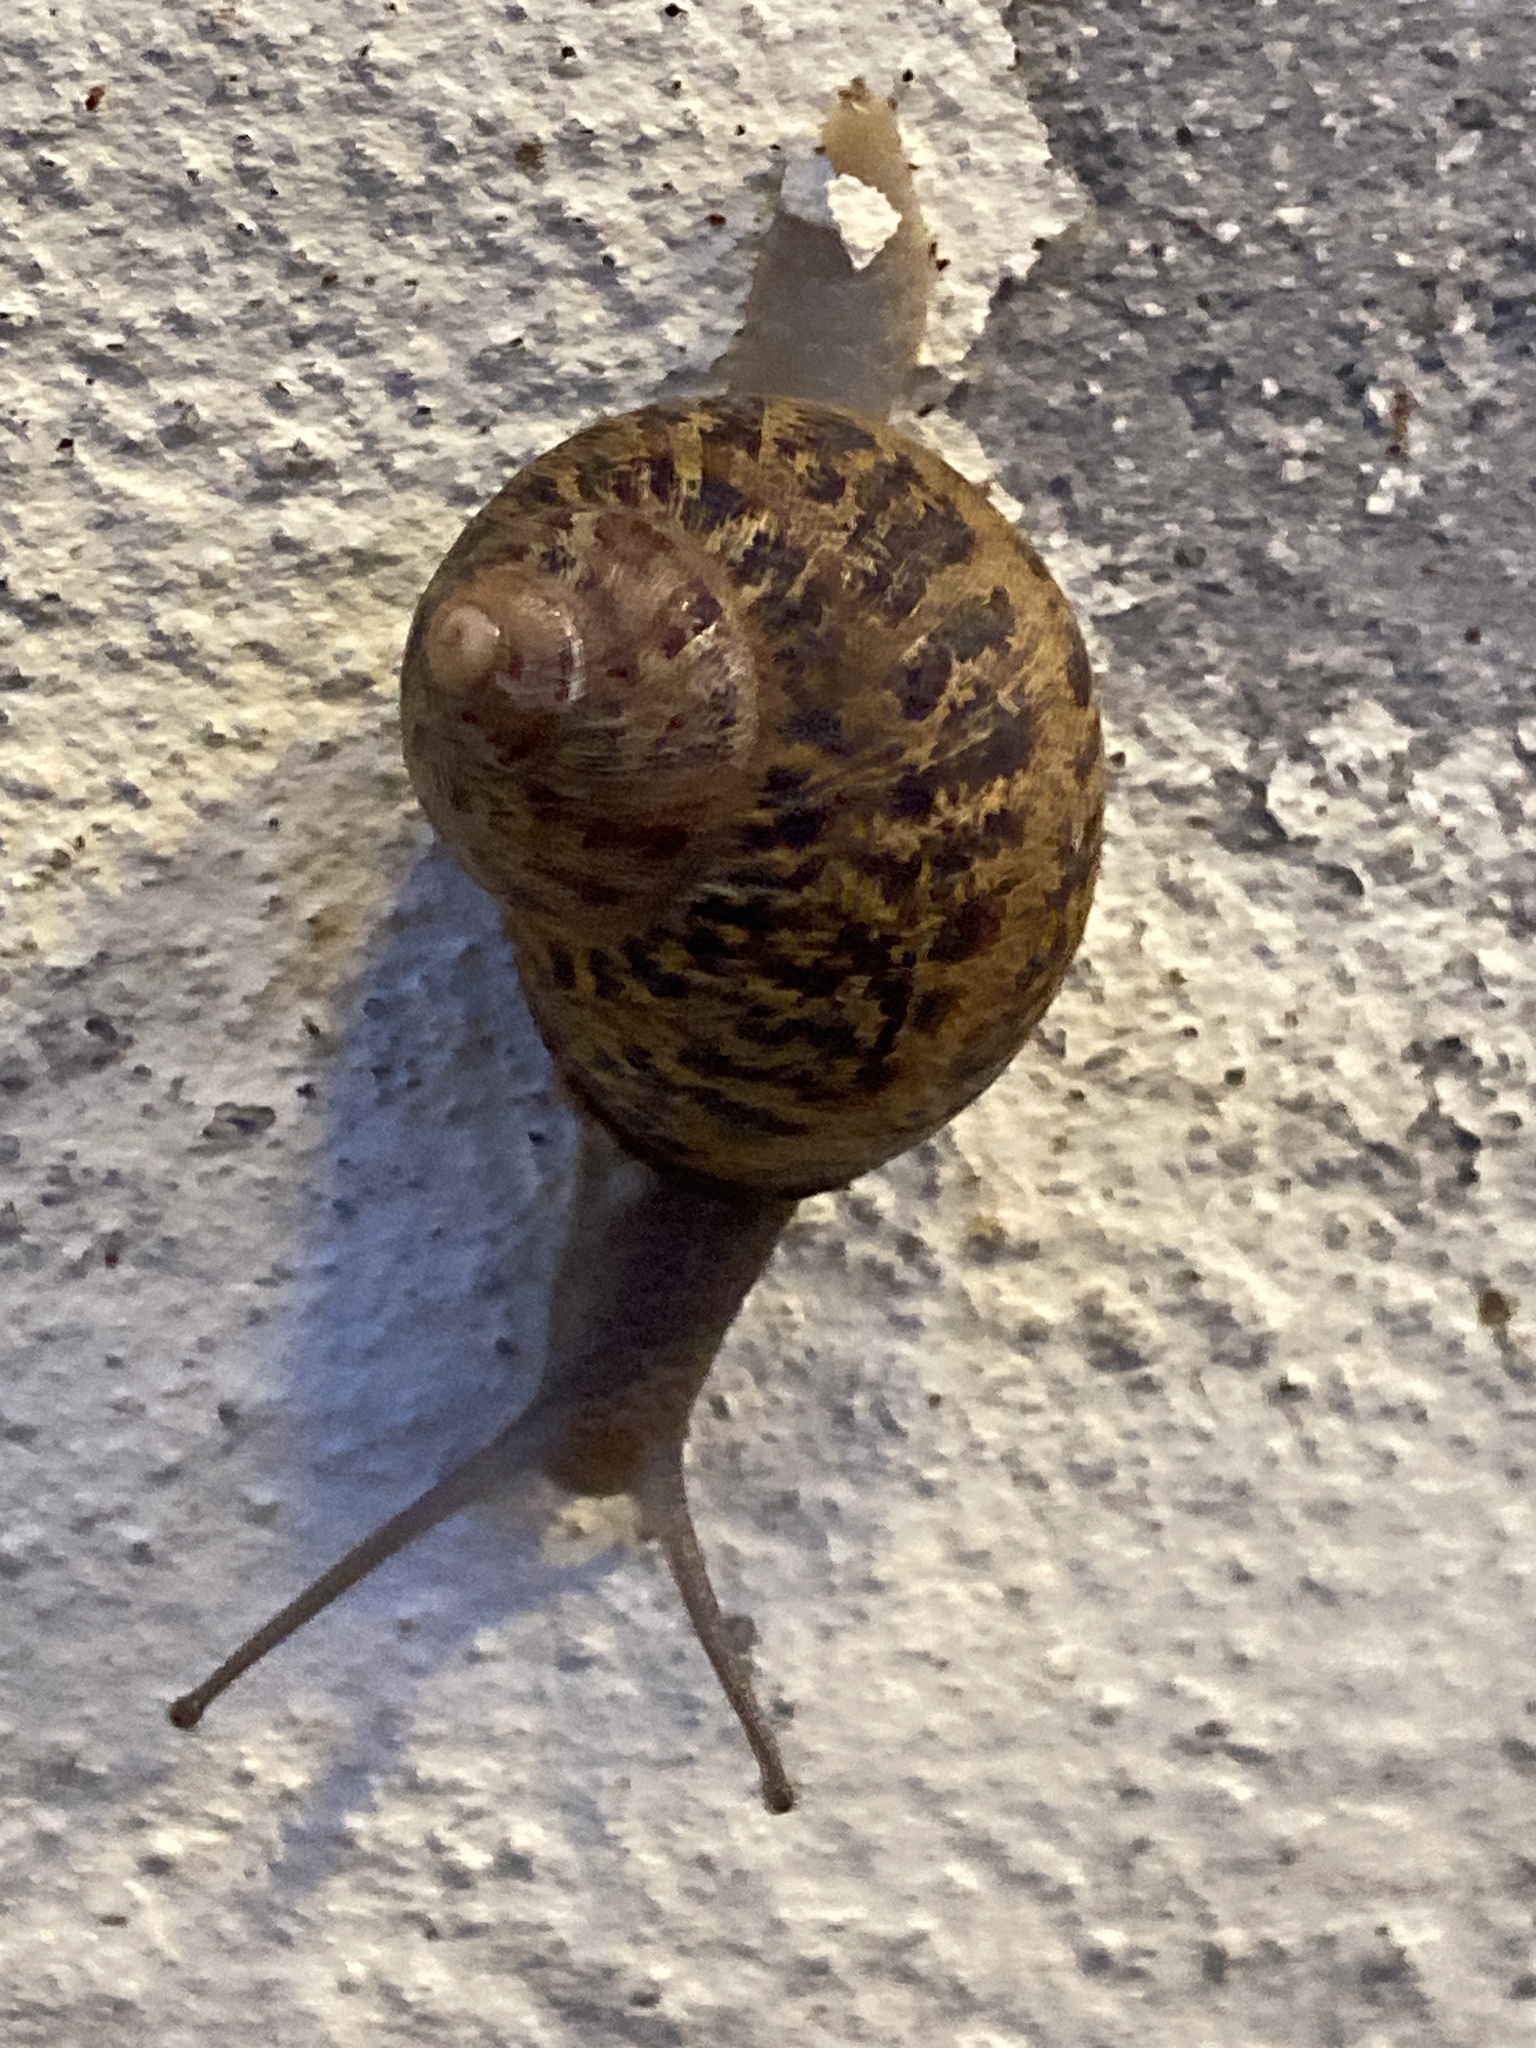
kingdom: Animalia
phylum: Mollusca
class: Gastropoda
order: Stylommatophora
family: Helicidae
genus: Cornu
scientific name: Cornu aspersum
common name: Brown garden snail
